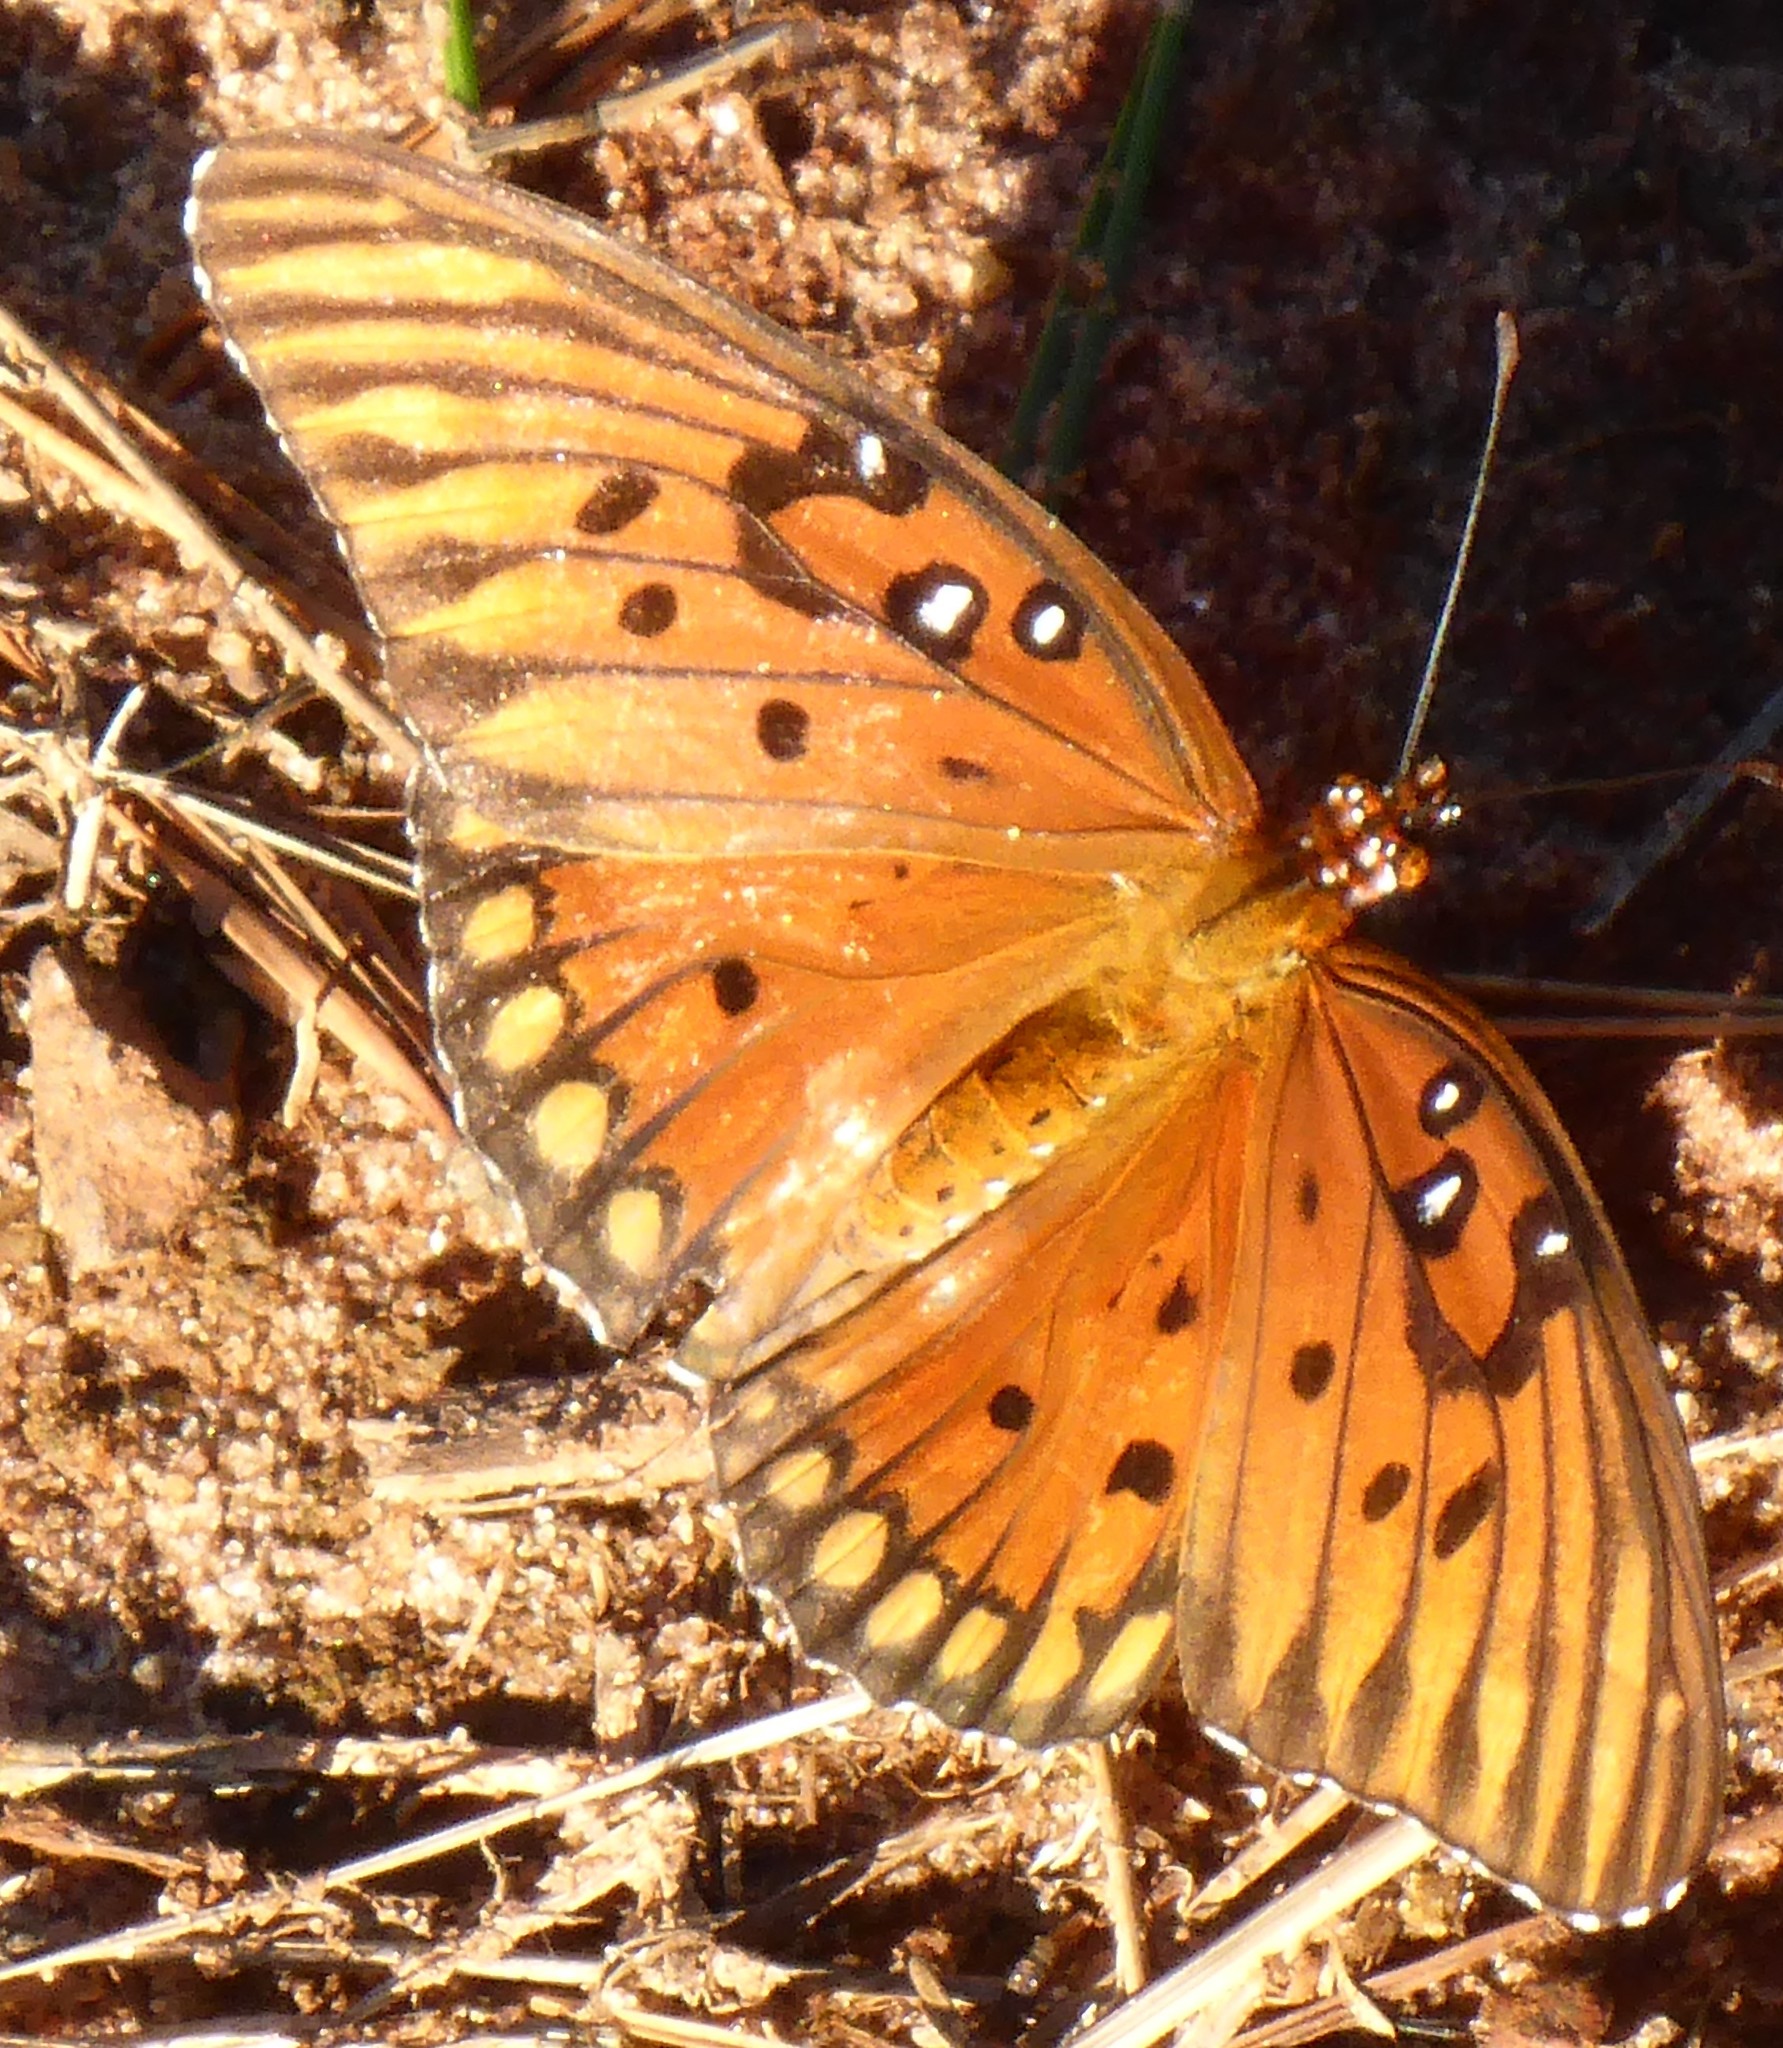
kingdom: Animalia
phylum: Arthropoda
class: Insecta
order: Lepidoptera
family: Nymphalidae
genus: Dione
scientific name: Dione vanillae
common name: Gulf fritillary
